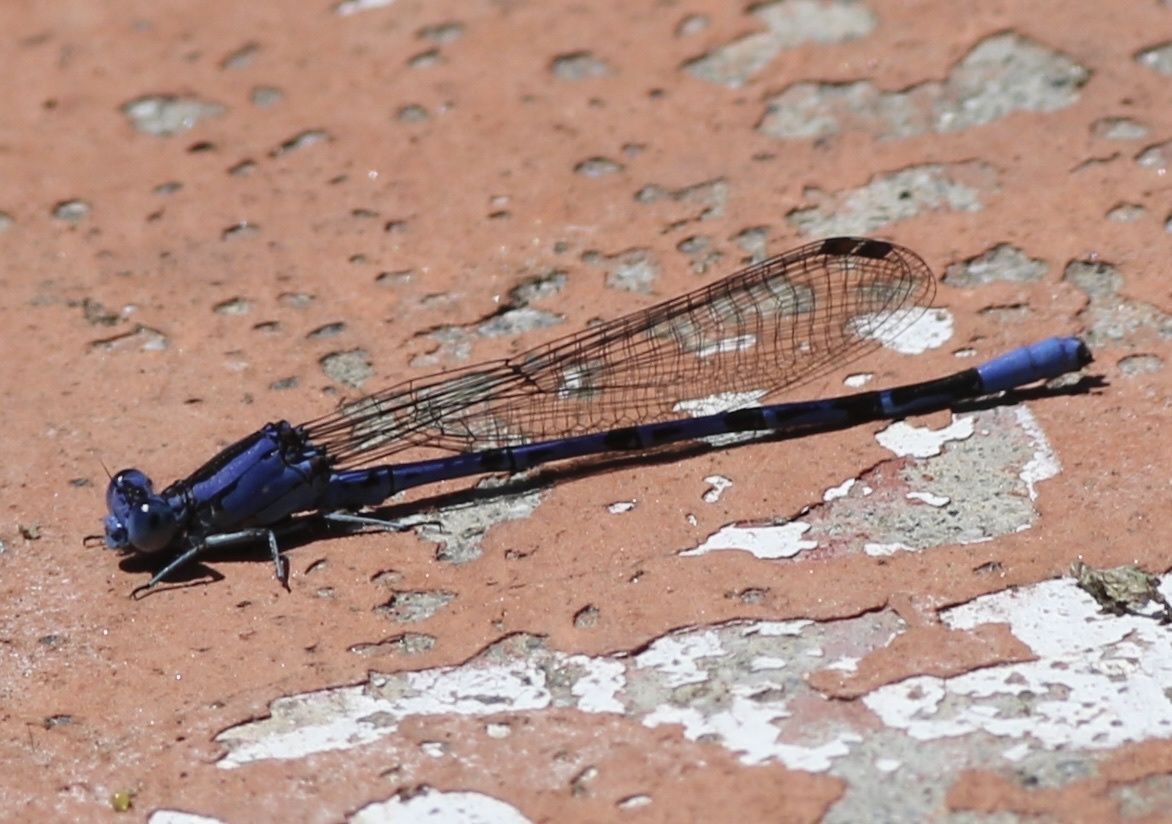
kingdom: Animalia
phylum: Arthropoda
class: Insecta
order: Odonata
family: Coenagrionidae
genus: Argia
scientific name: Argia vivida
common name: Vivid dancer
